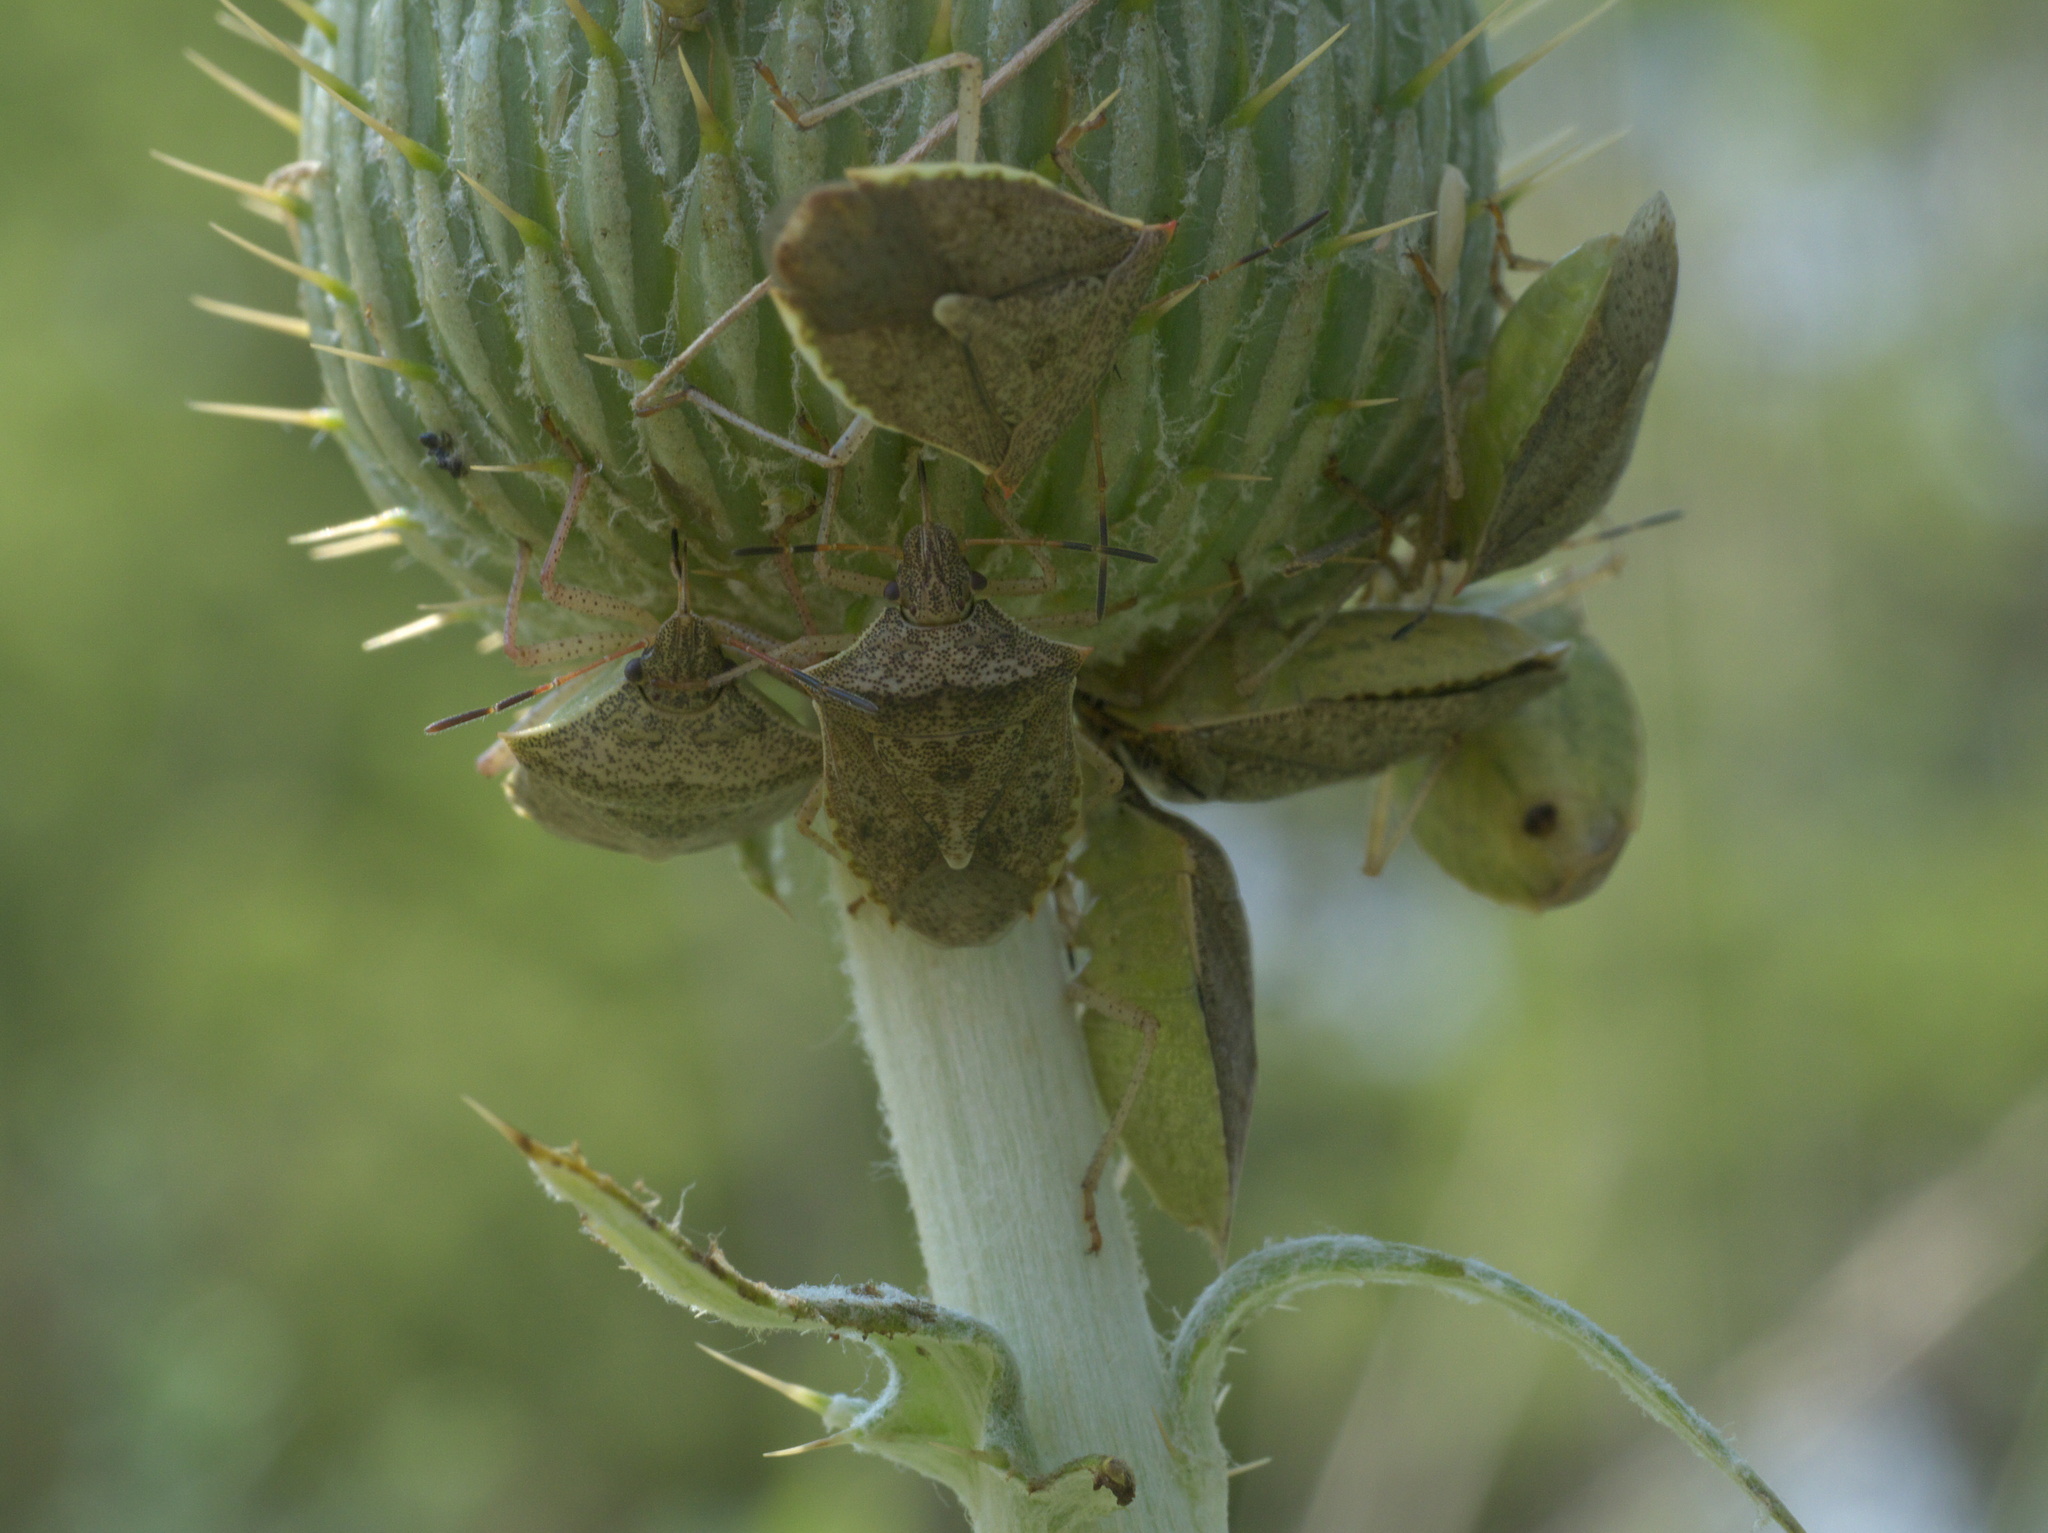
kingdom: Animalia
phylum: Arthropoda
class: Insecta
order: Hemiptera
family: Pentatomidae
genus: Euschistus
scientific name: Euschistus variolarius
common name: Onespotted stink bug
